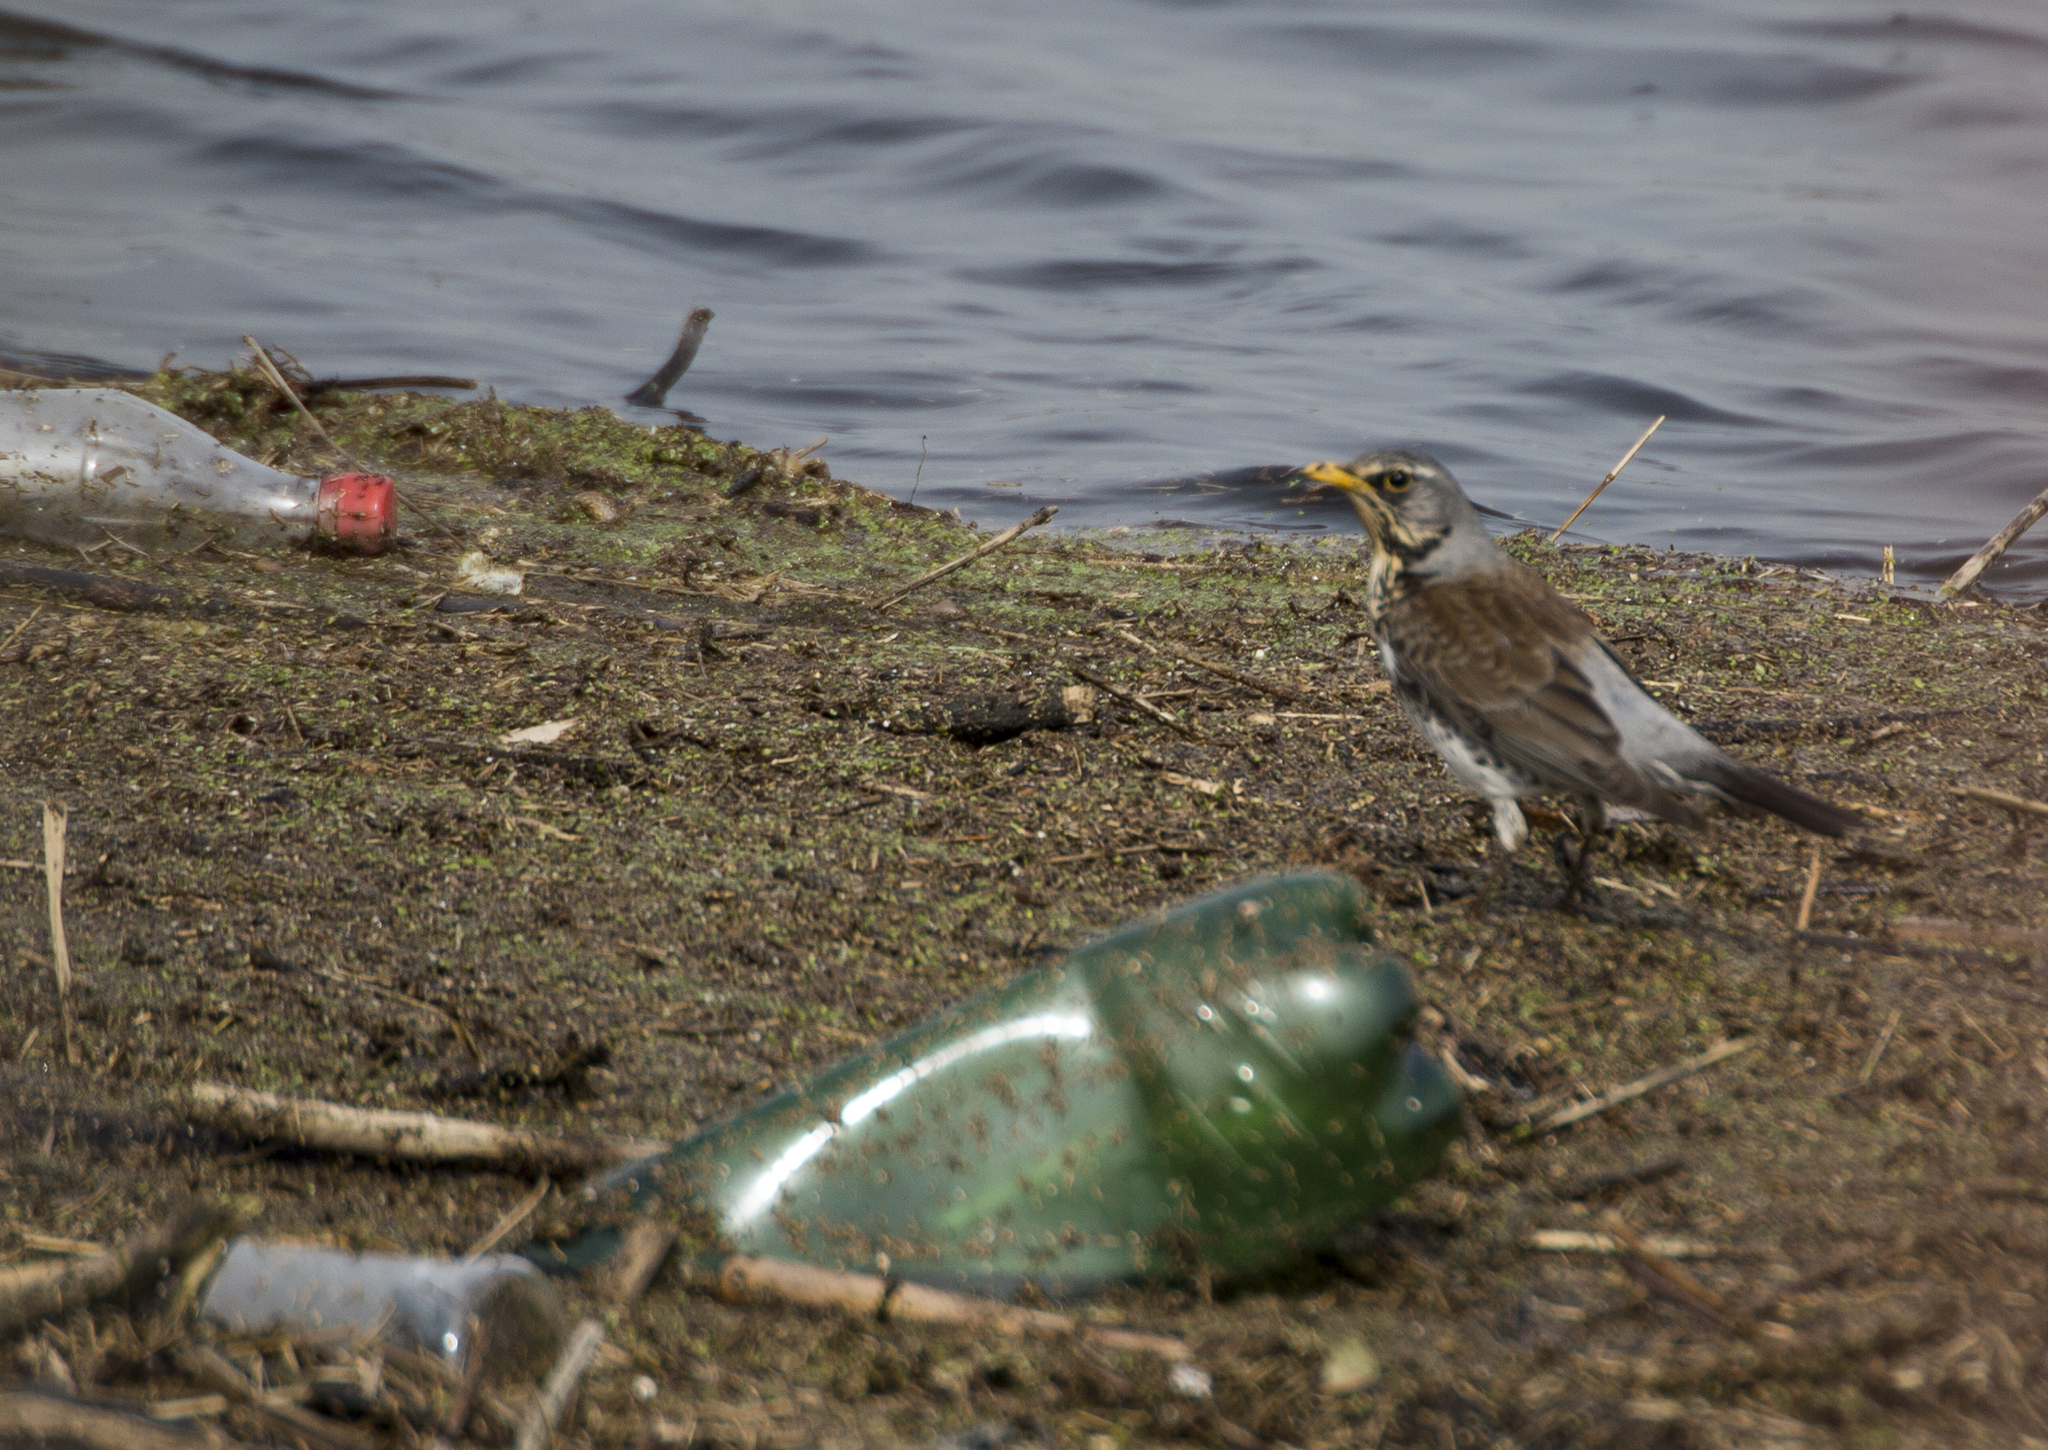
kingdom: Animalia
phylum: Chordata
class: Aves
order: Passeriformes
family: Turdidae
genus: Turdus
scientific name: Turdus pilaris
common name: Fieldfare
